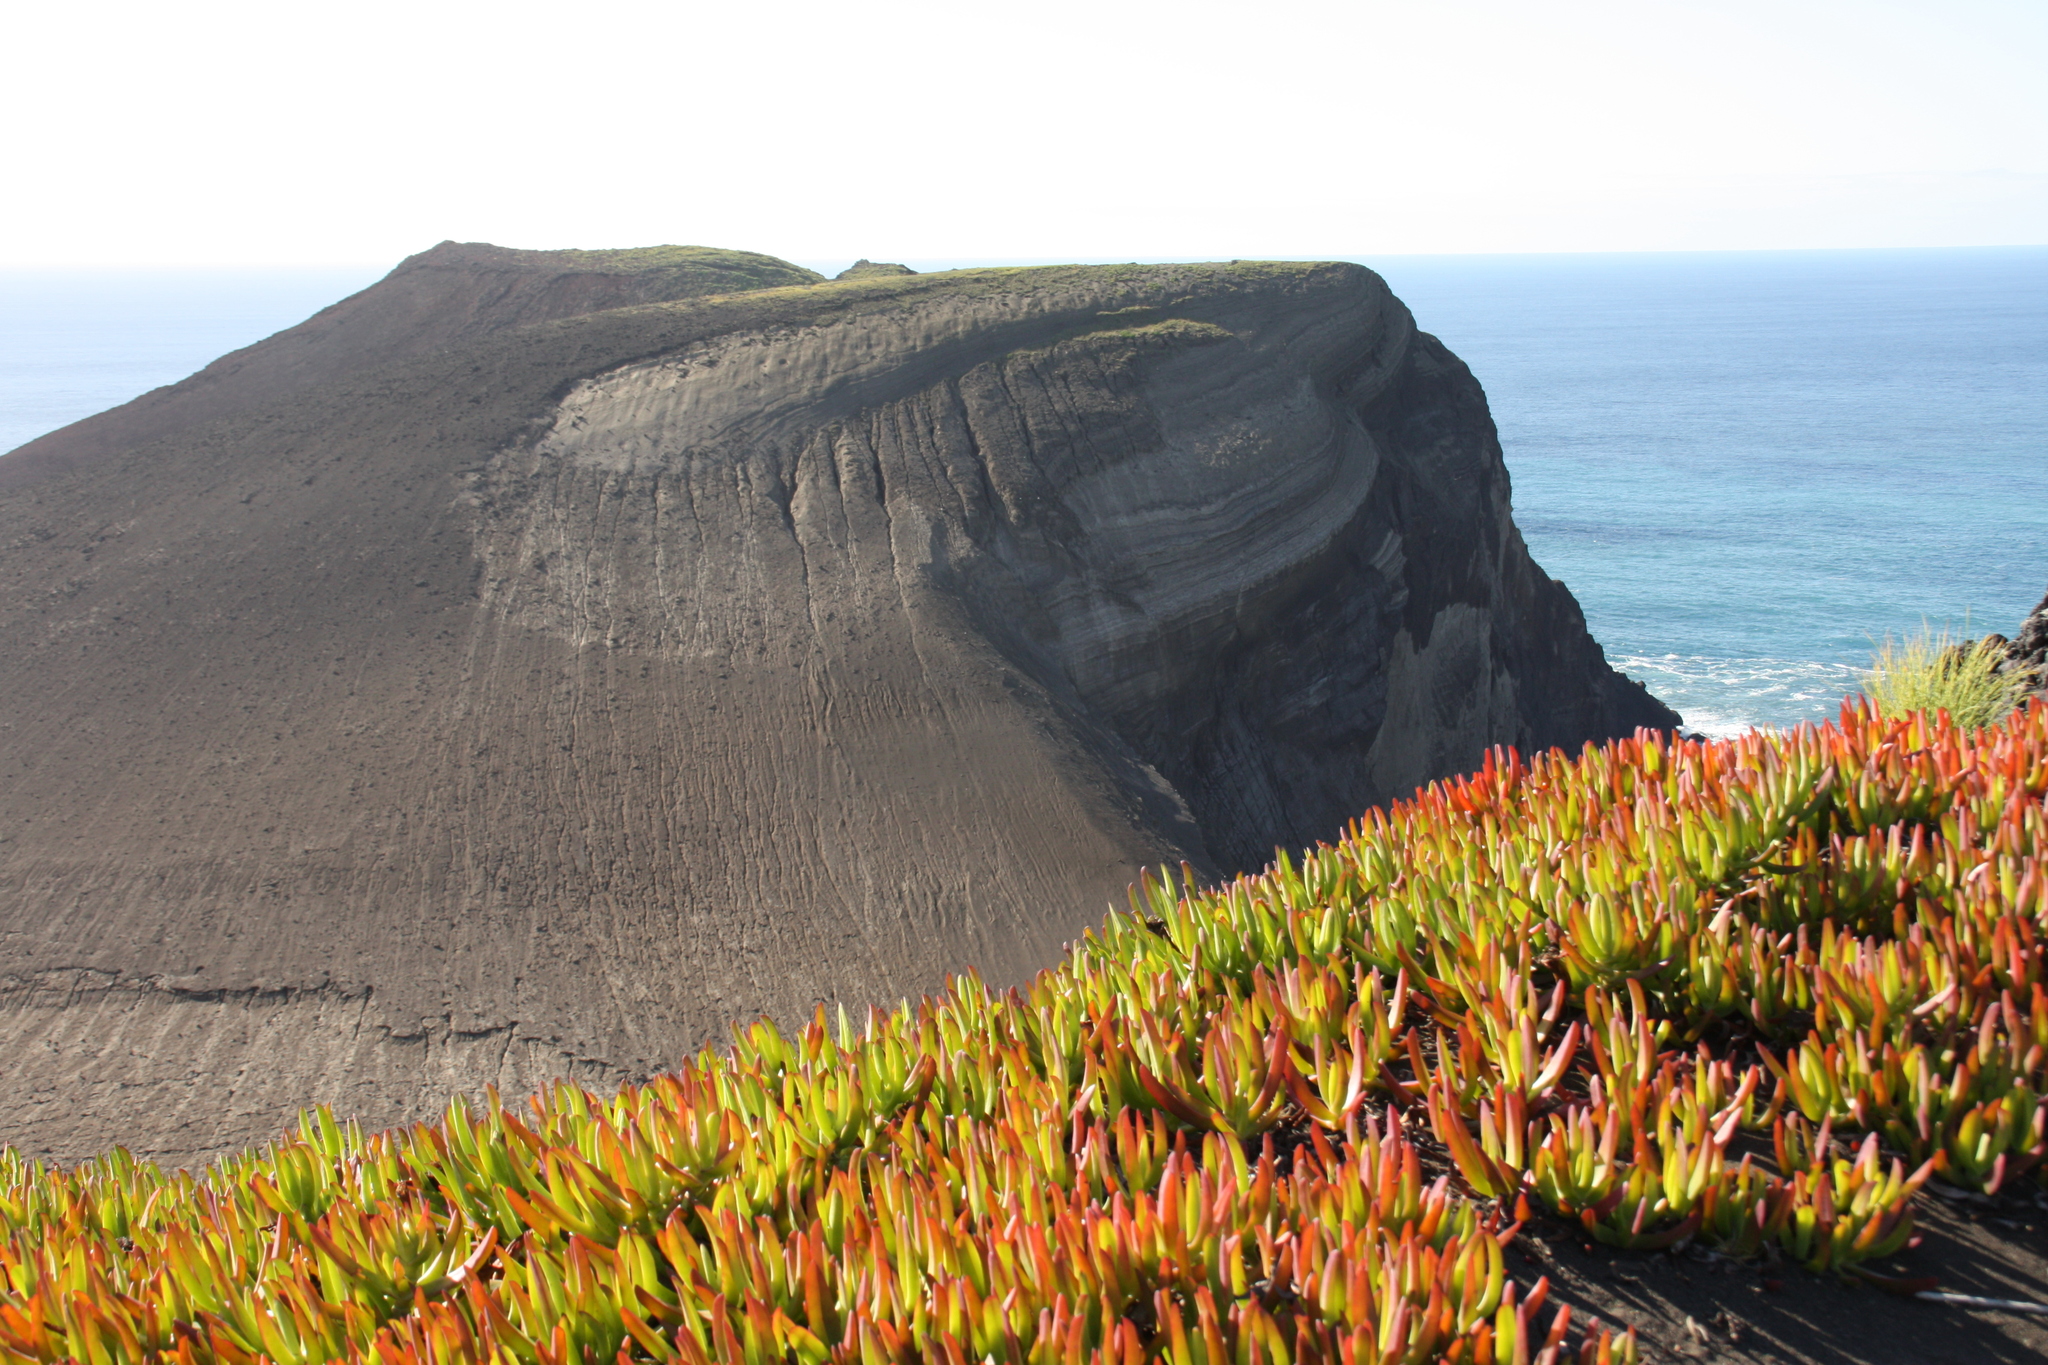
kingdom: Plantae
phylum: Tracheophyta
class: Magnoliopsida
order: Caryophyllales
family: Aizoaceae
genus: Carpobrotus
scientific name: Carpobrotus edulis
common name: Hottentot-fig
